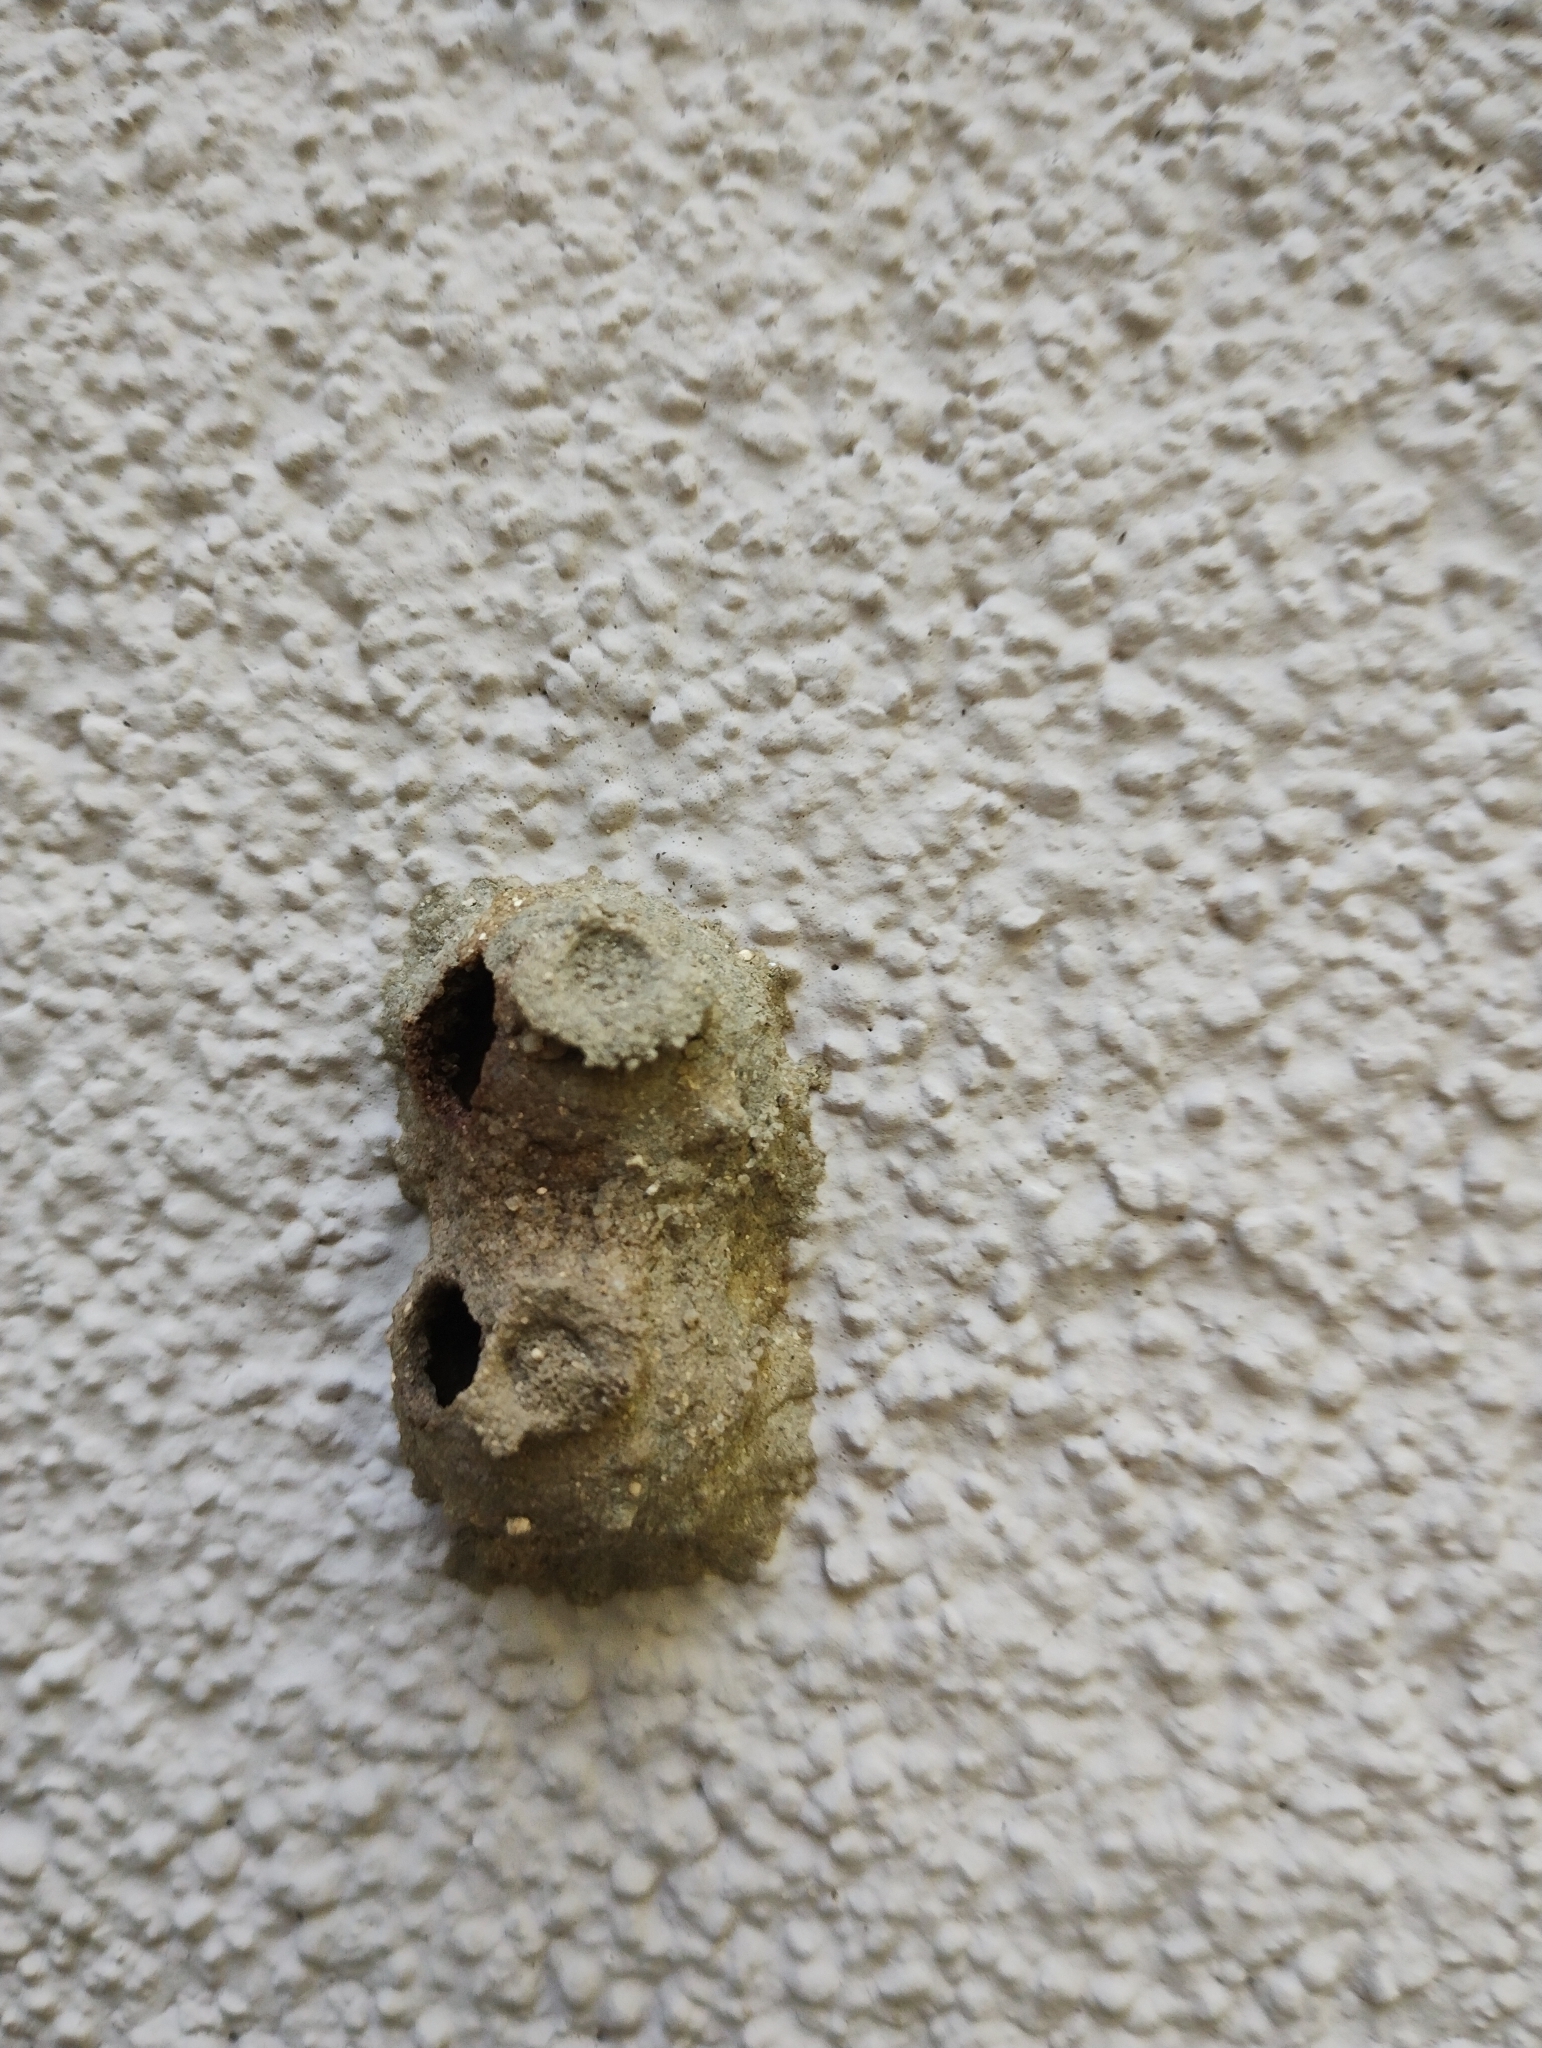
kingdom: Animalia
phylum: Arthropoda
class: Insecta
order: Hymenoptera
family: Eumenidae
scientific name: Eumenidae
